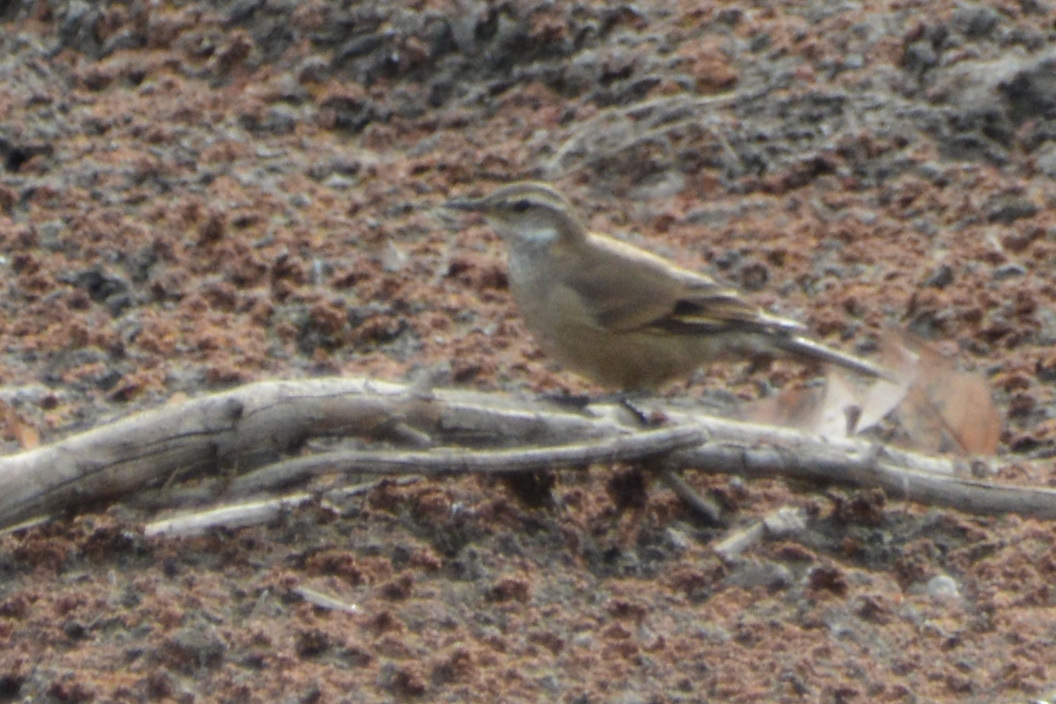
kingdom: Animalia
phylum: Chordata
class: Aves
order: Passeriformes
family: Furnariidae
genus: Cinclodes
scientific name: Cinclodes fuscus
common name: Buff-winged cinclodes
